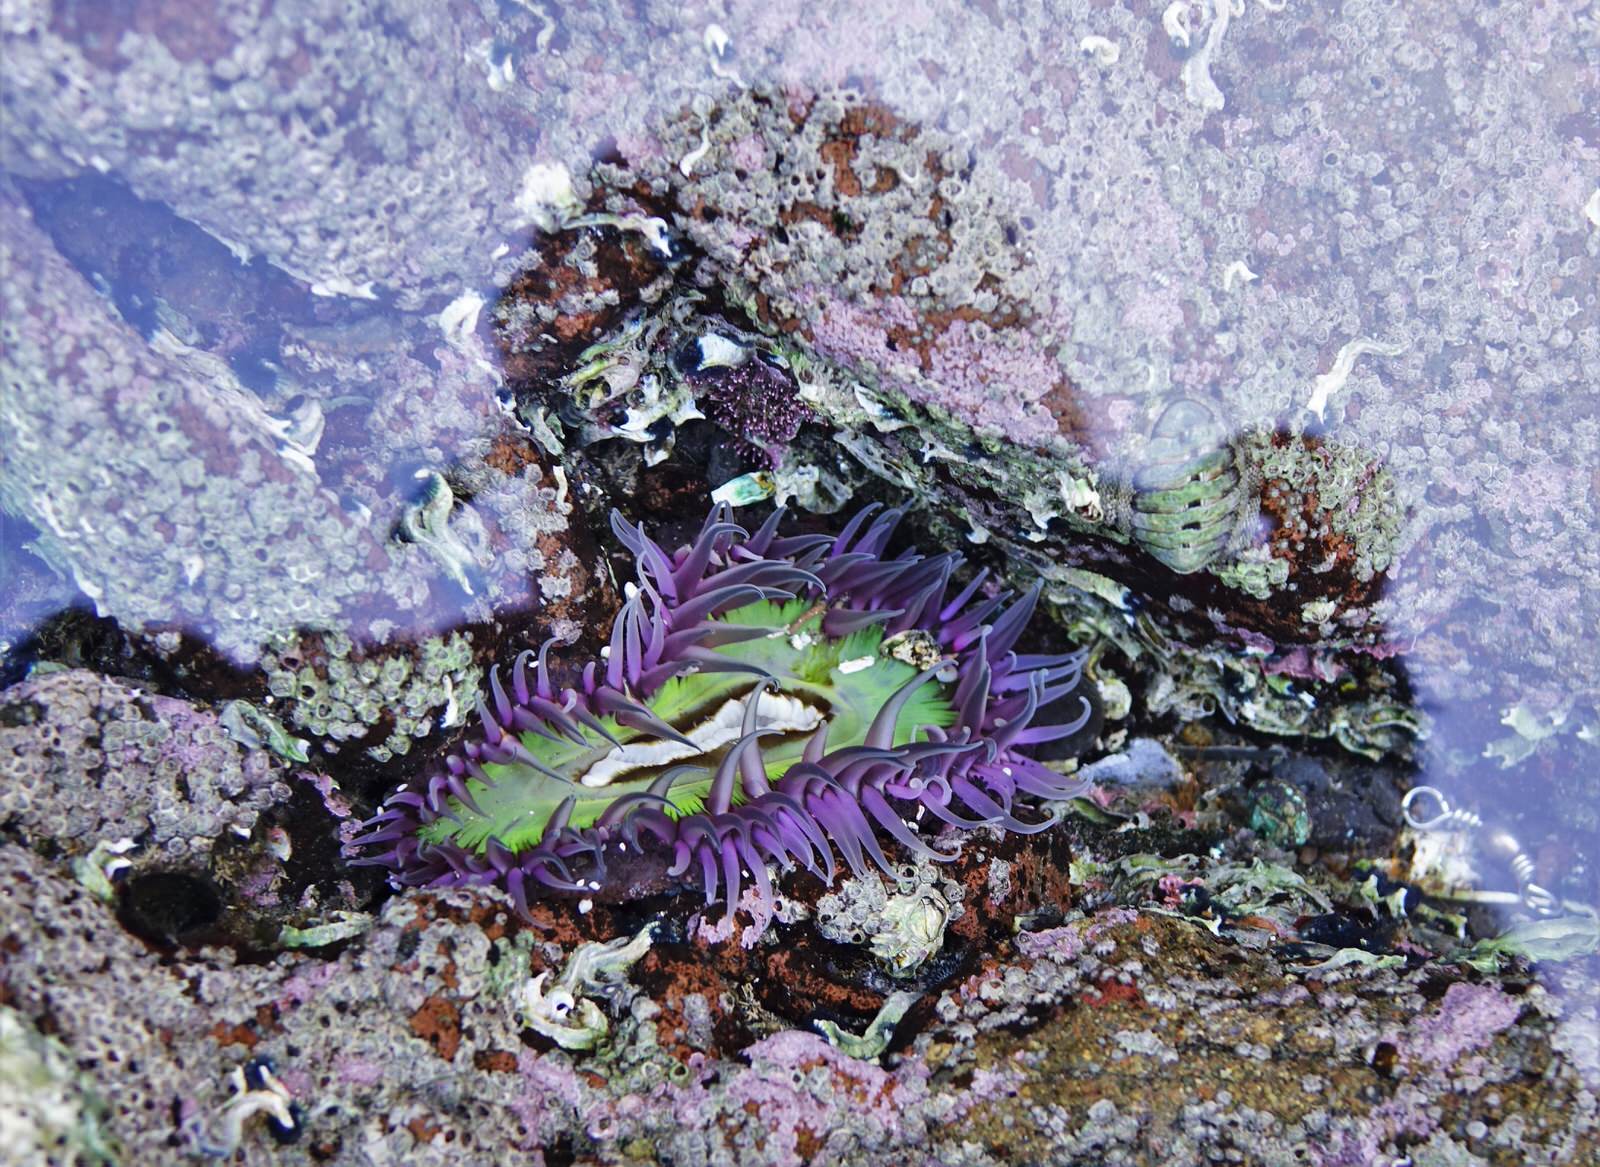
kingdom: Animalia
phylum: Cnidaria
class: Anthozoa
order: Actiniaria
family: Actiniidae
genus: Oulactis
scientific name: Oulactis magna
